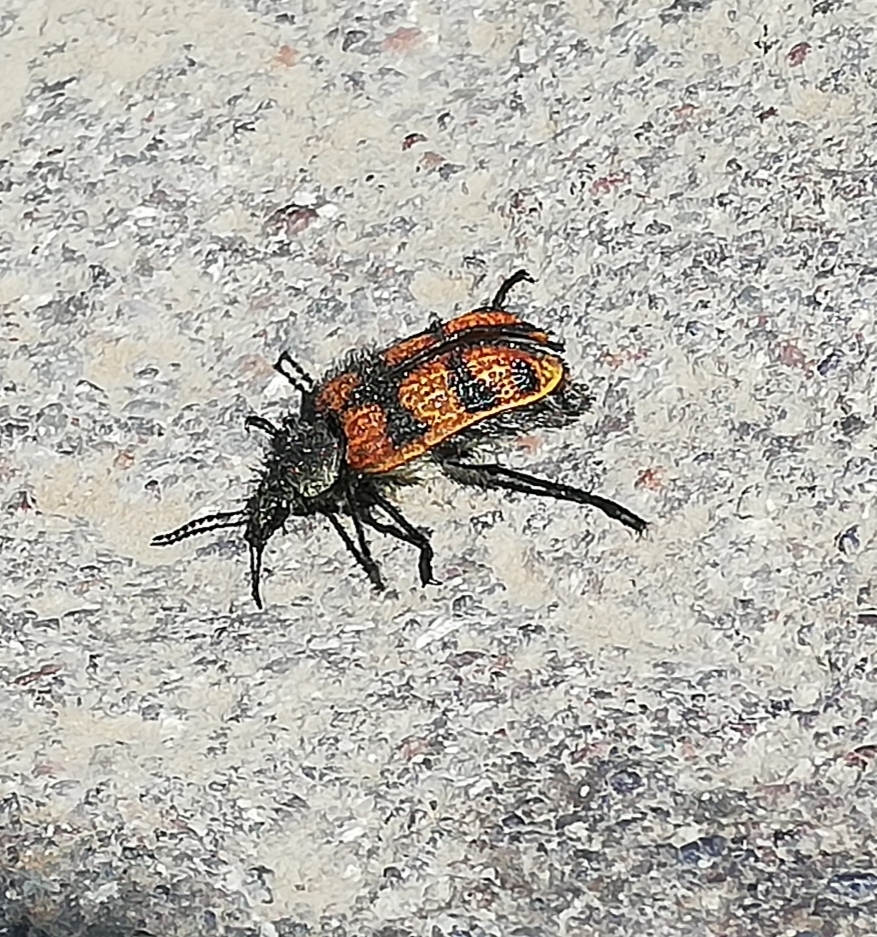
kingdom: Animalia
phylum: Arthropoda
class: Insecta
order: Coleoptera
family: Melyridae
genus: Astylus
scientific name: Astylus
